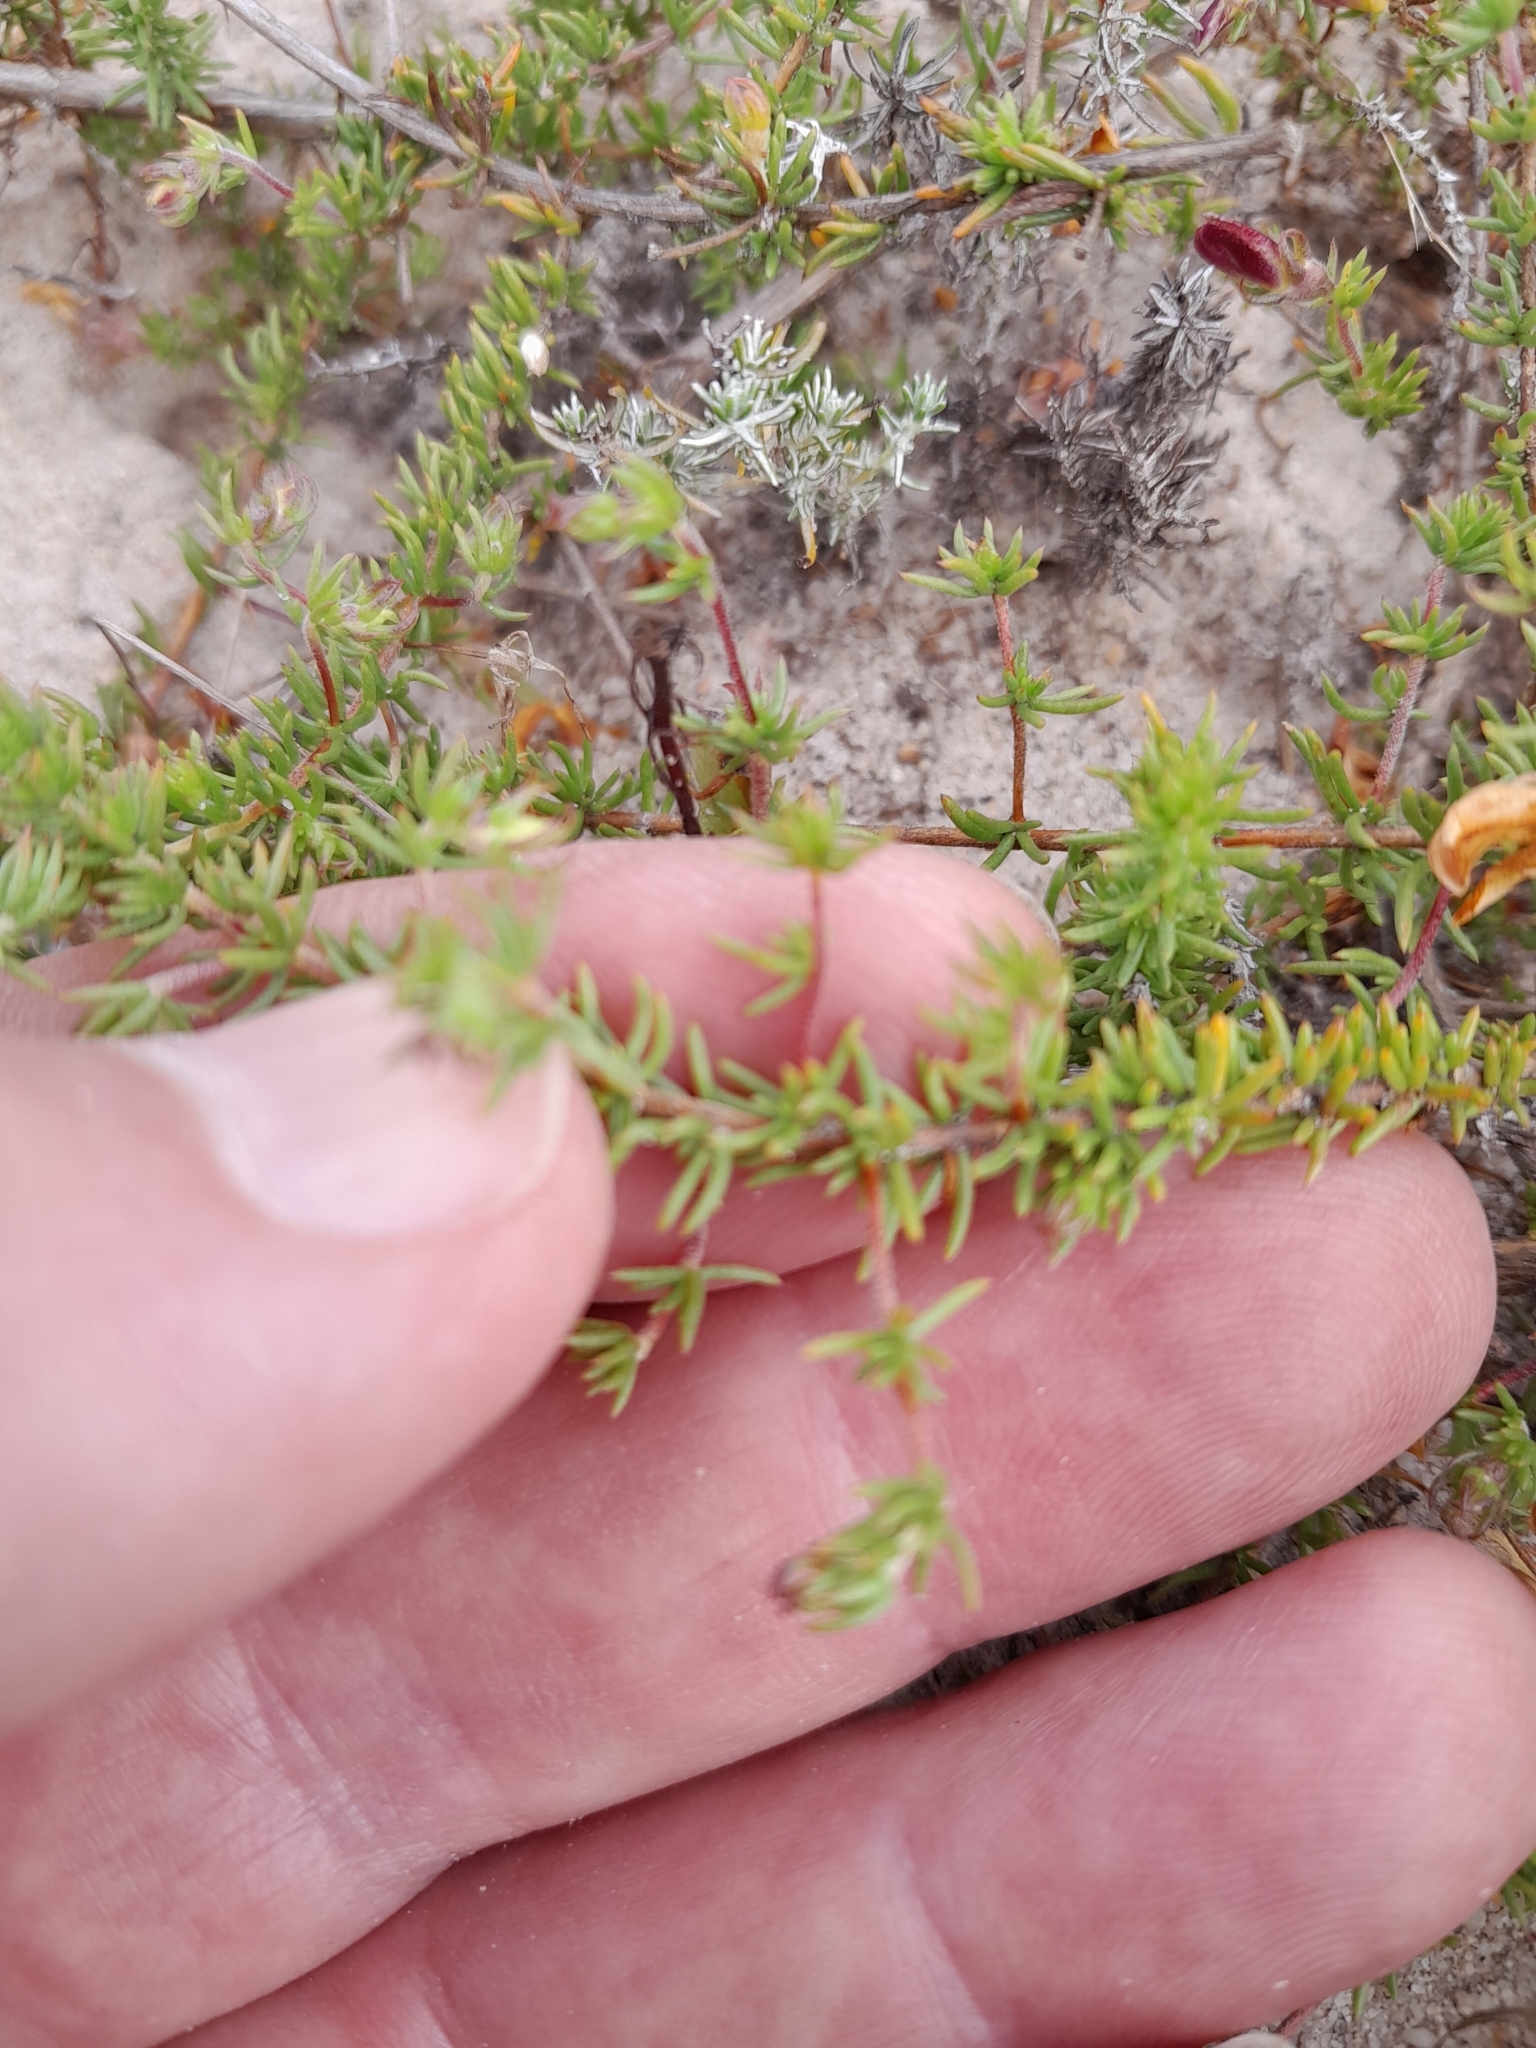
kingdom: Plantae
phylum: Tracheophyta
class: Magnoliopsida
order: Fabales
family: Fabaceae
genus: Aspalathus
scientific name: Aspalathus retroflexa
